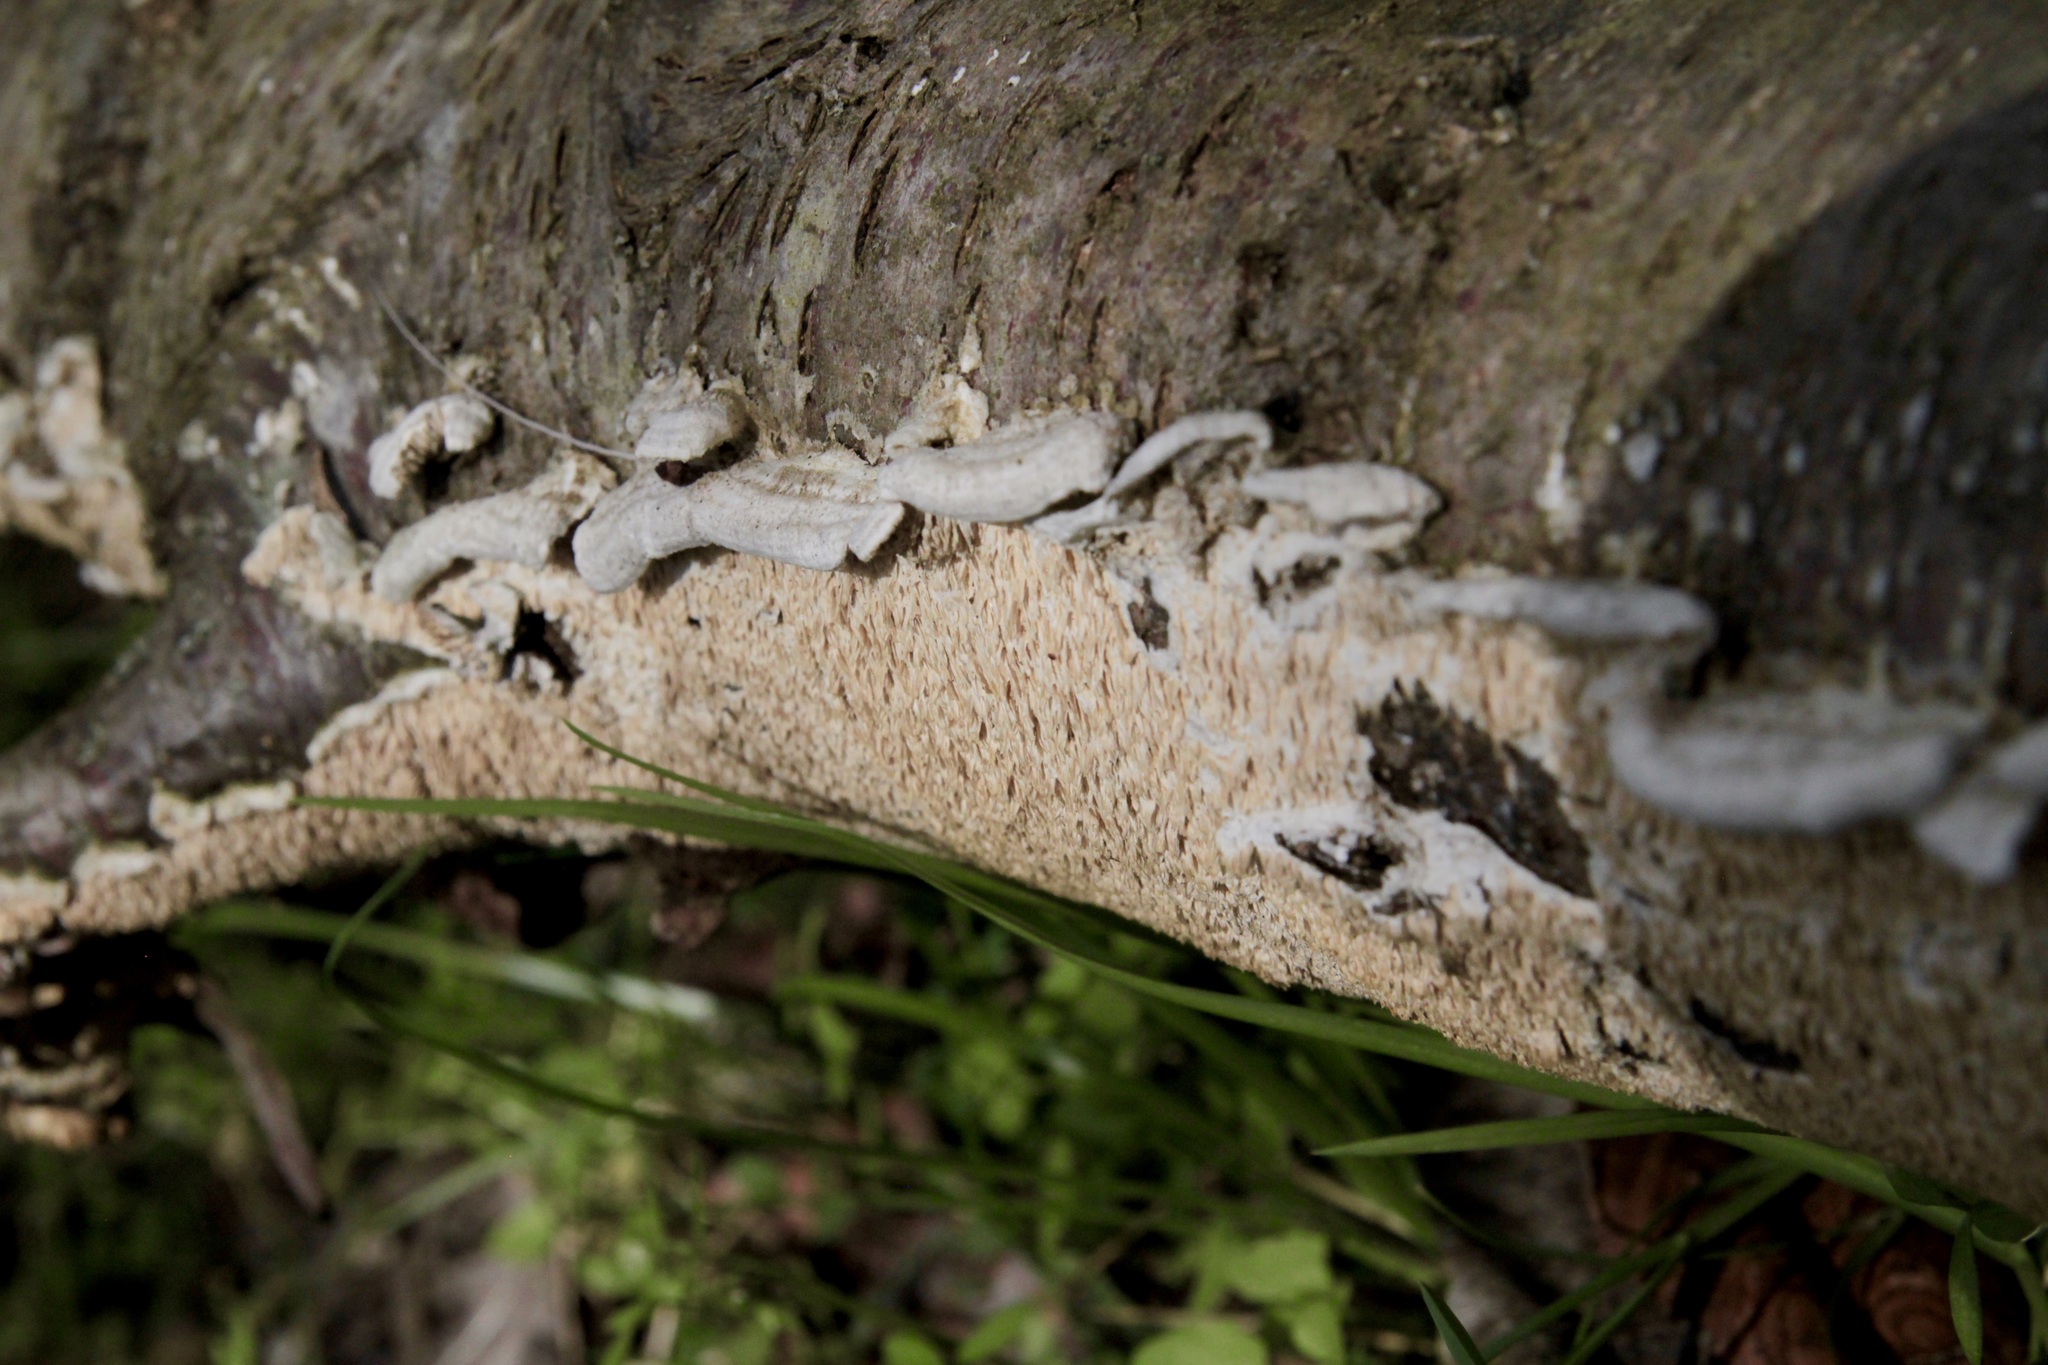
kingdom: Fungi
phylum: Basidiomycota
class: Agaricomycetes
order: Polyporales
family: Irpicaceae
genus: Irpex
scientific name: Irpex lacteus
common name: Milk-white toothed polypore
